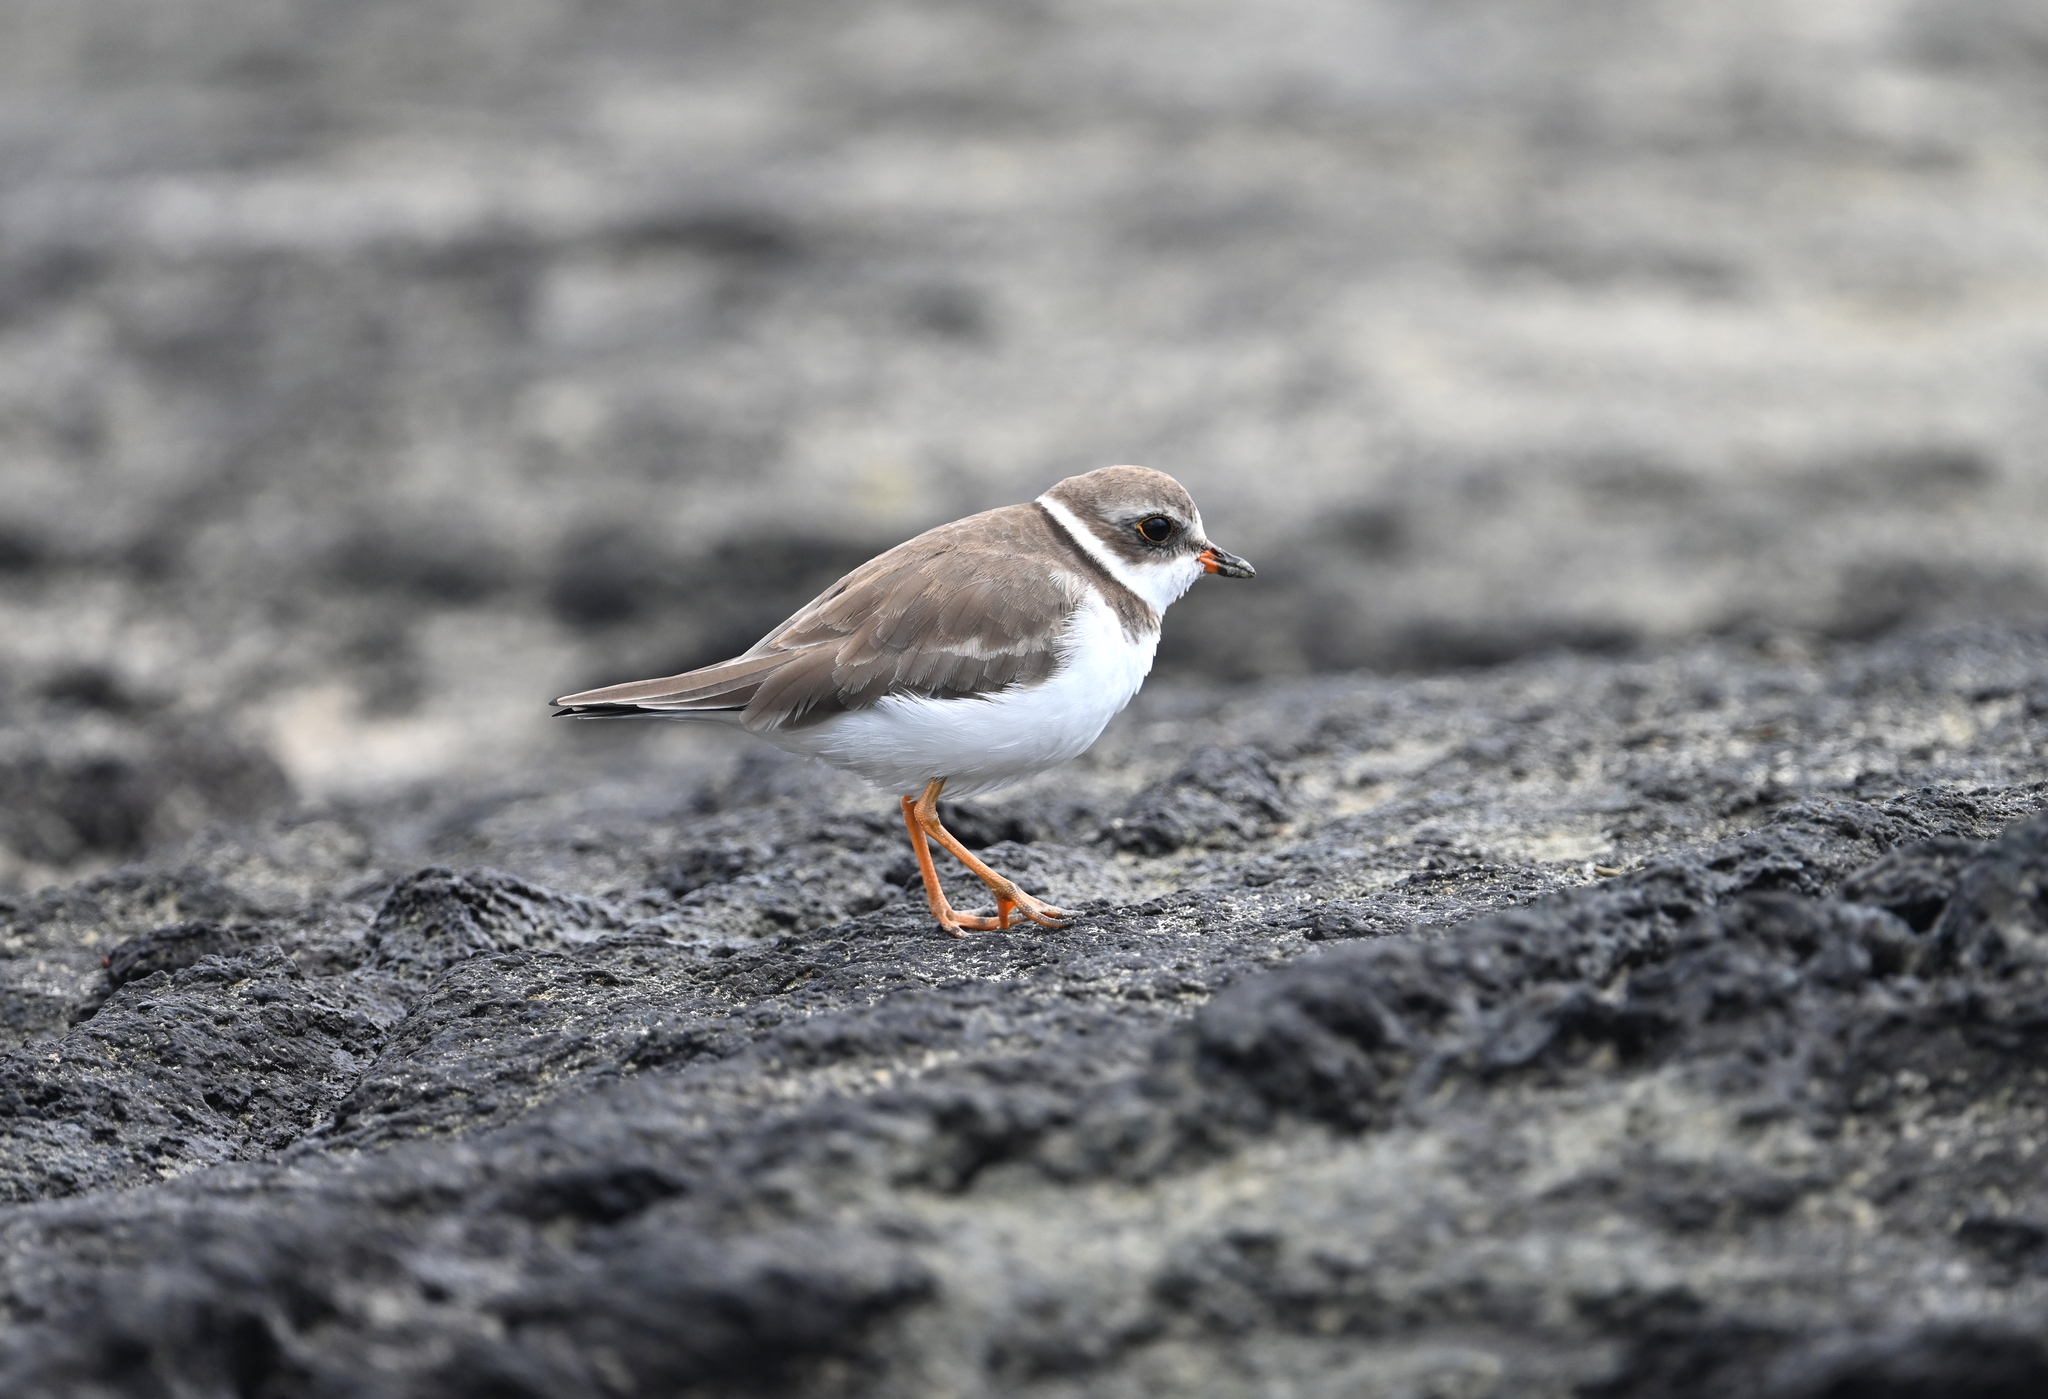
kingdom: Animalia
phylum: Chordata
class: Aves
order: Charadriiformes
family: Charadriidae
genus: Charadrius
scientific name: Charadrius semipalmatus
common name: Semipalmated plover
